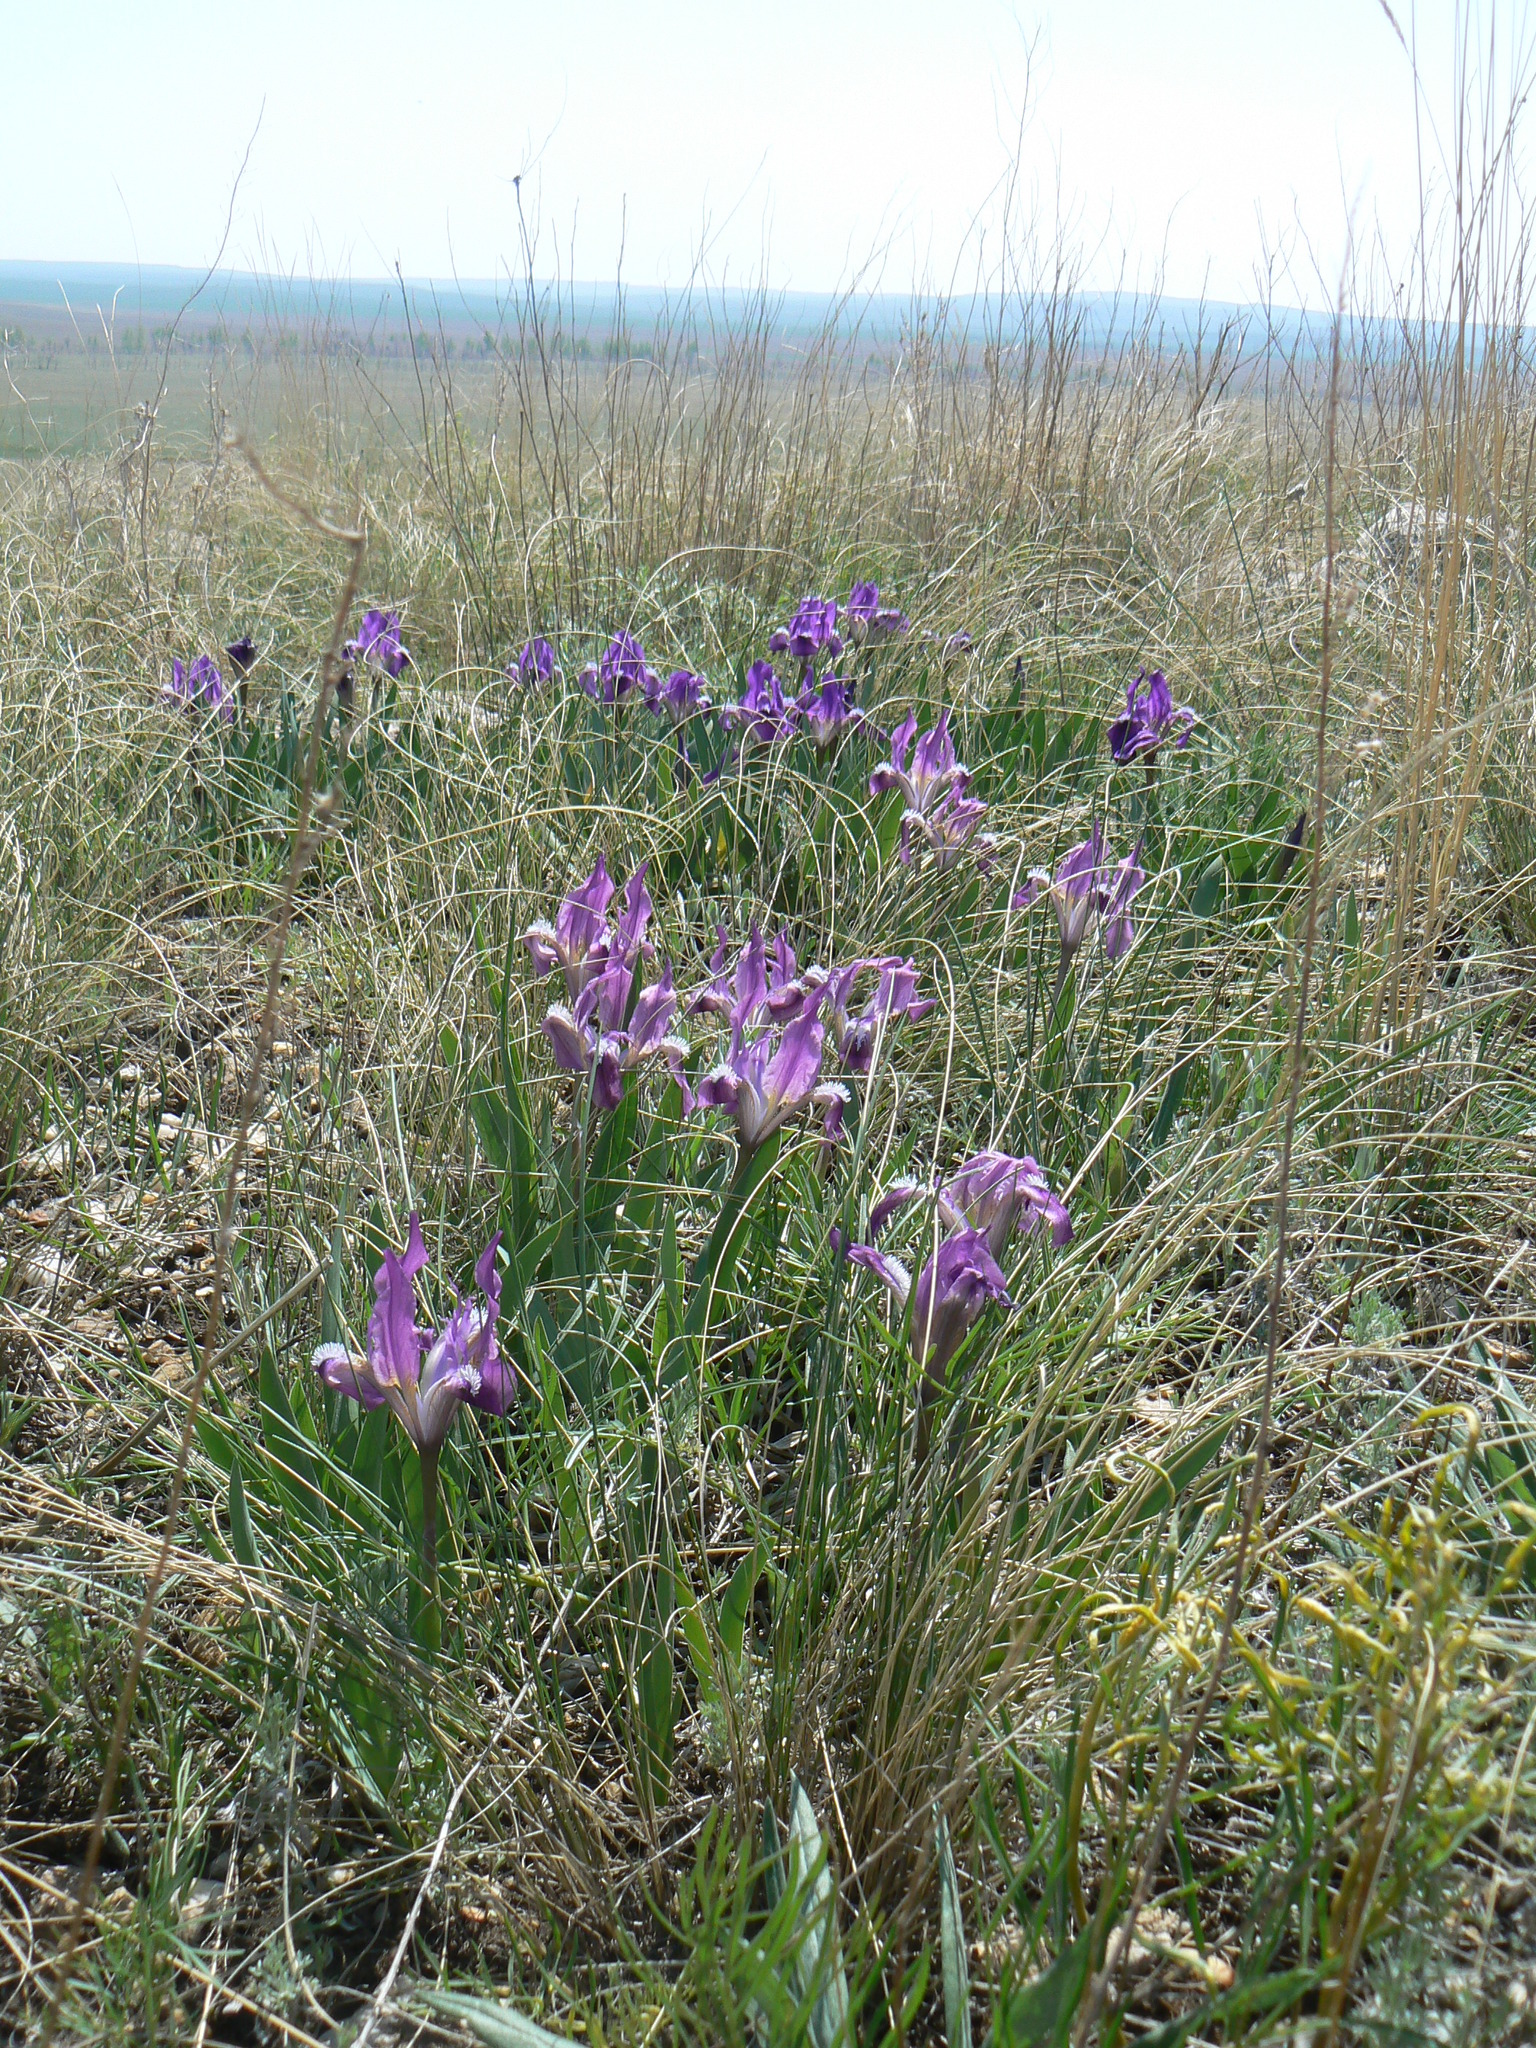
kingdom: Plantae
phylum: Tracheophyta
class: Liliopsida
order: Asparagales
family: Iridaceae
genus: Iris
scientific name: Iris pumila
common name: Dwarf iris
